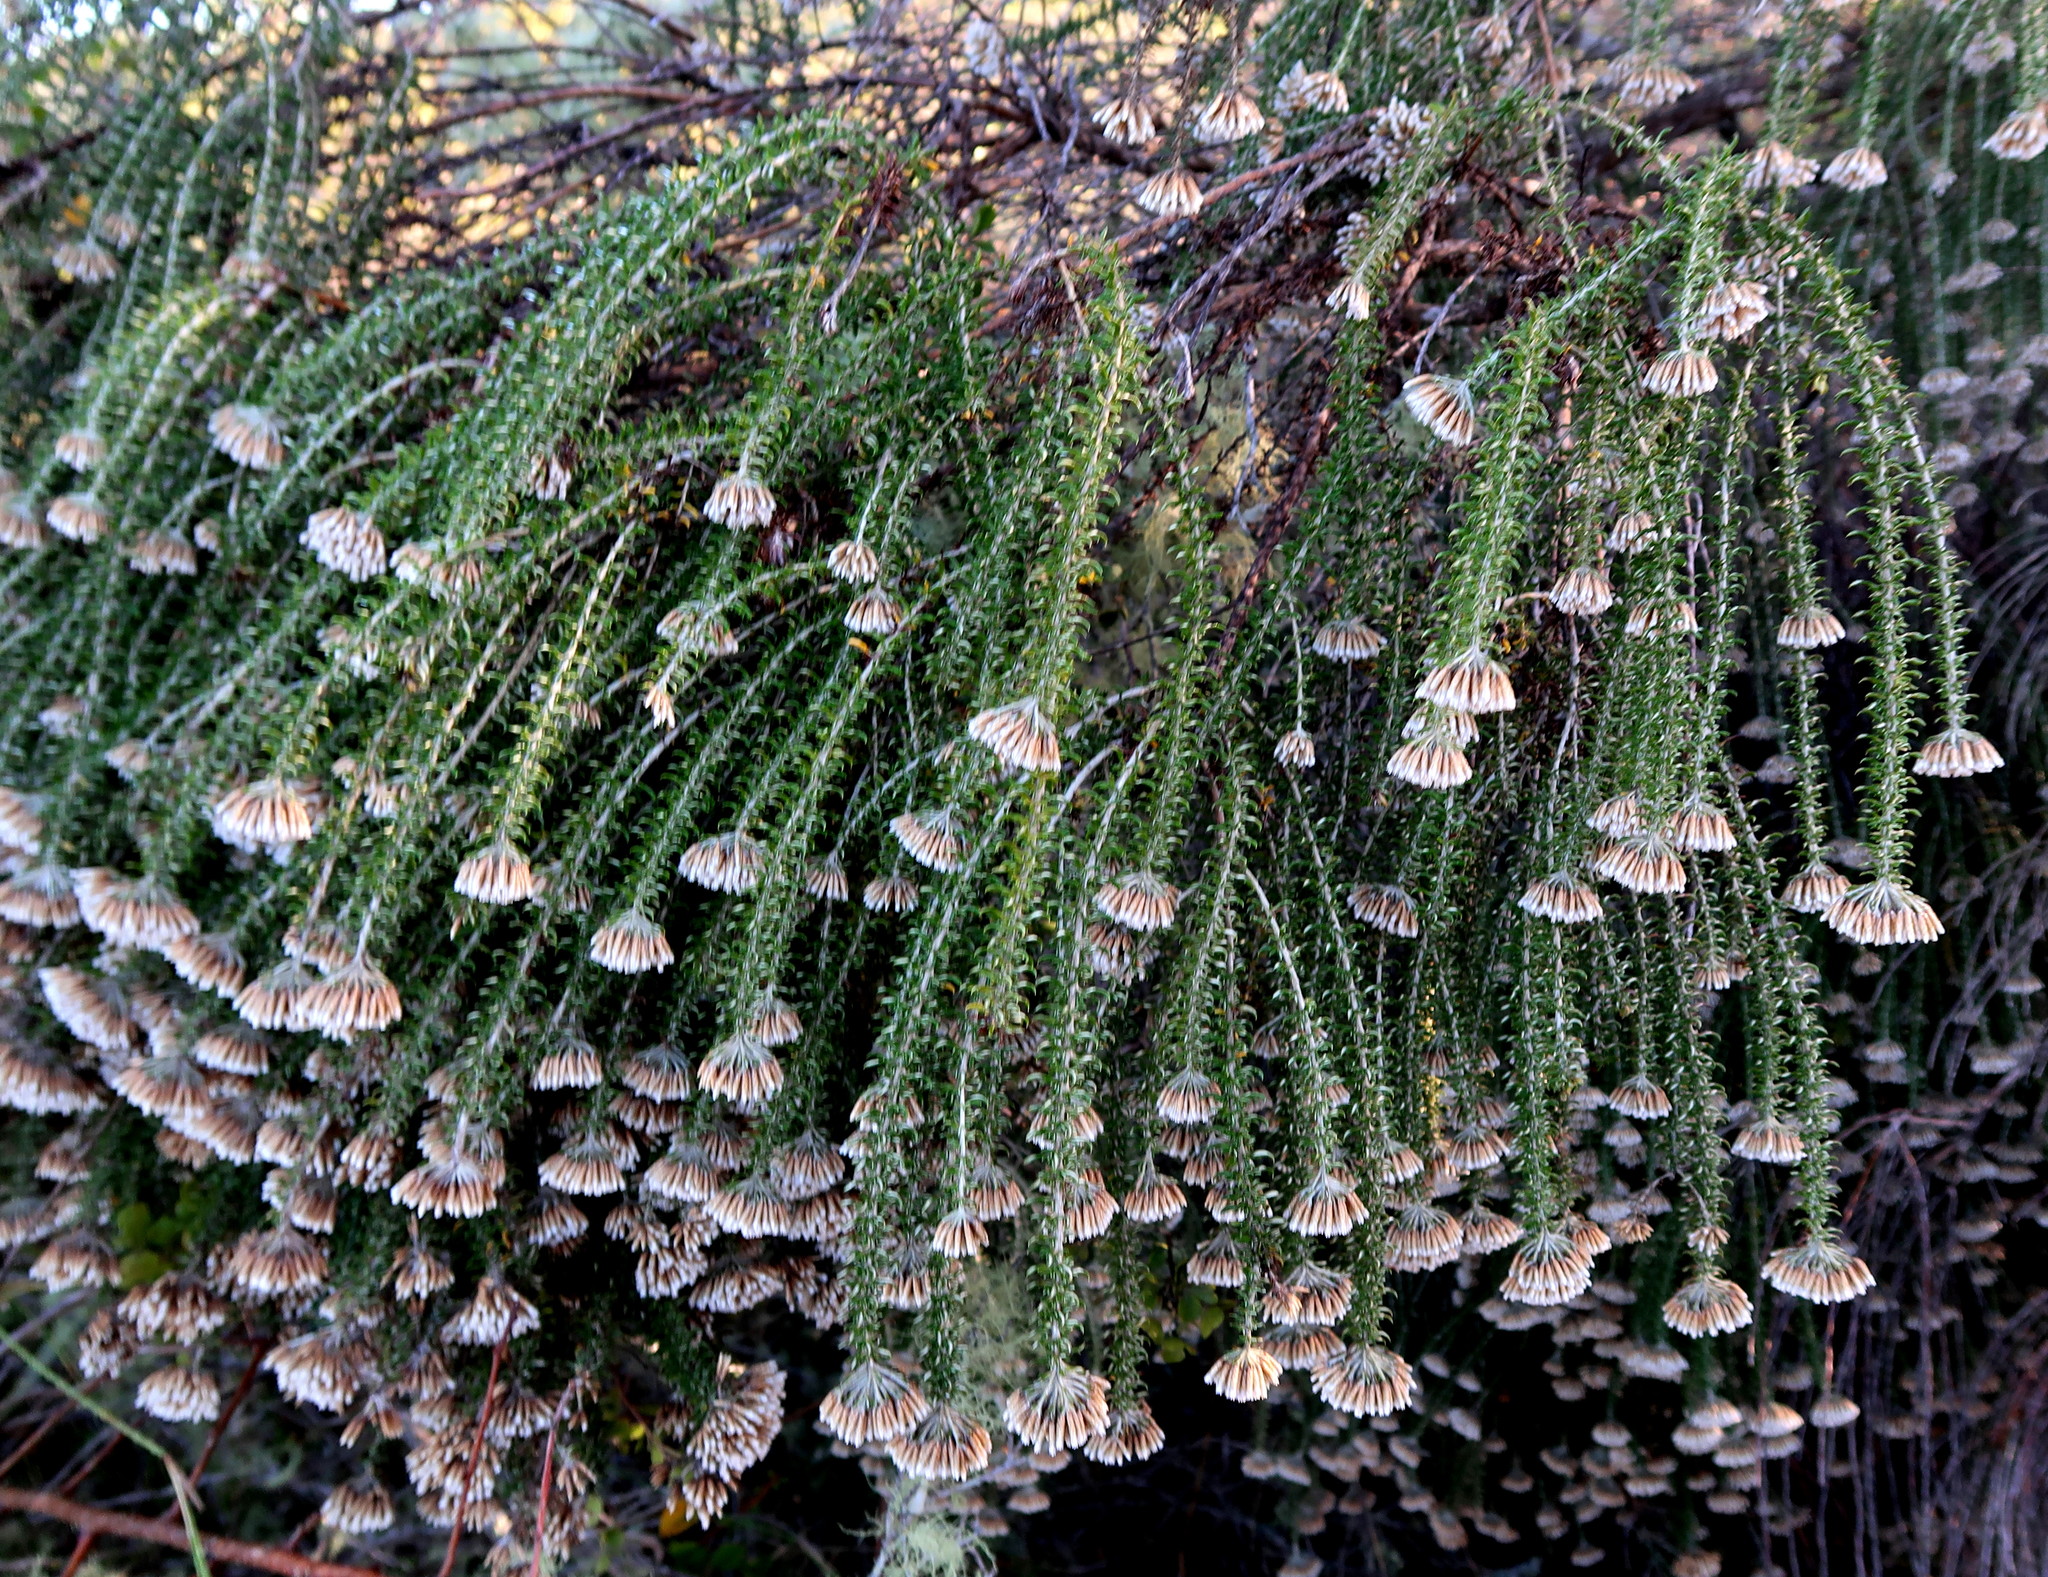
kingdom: Plantae
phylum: Tracheophyta
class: Magnoliopsida
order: Asterales
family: Asteraceae
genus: Metalasia
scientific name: Metalasia muricata
